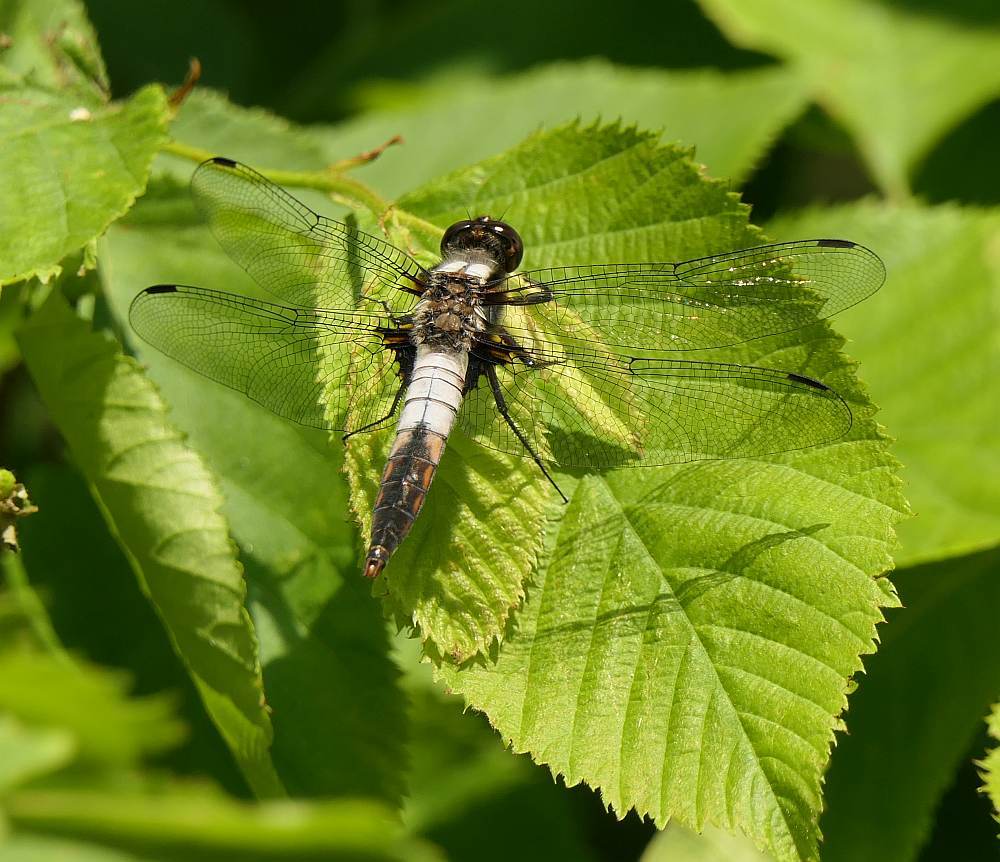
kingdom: Animalia
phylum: Arthropoda
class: Insecta
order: Odonata
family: Libellulidae
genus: Ladona
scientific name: Ladona julia
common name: Chalk-fronted corporal
